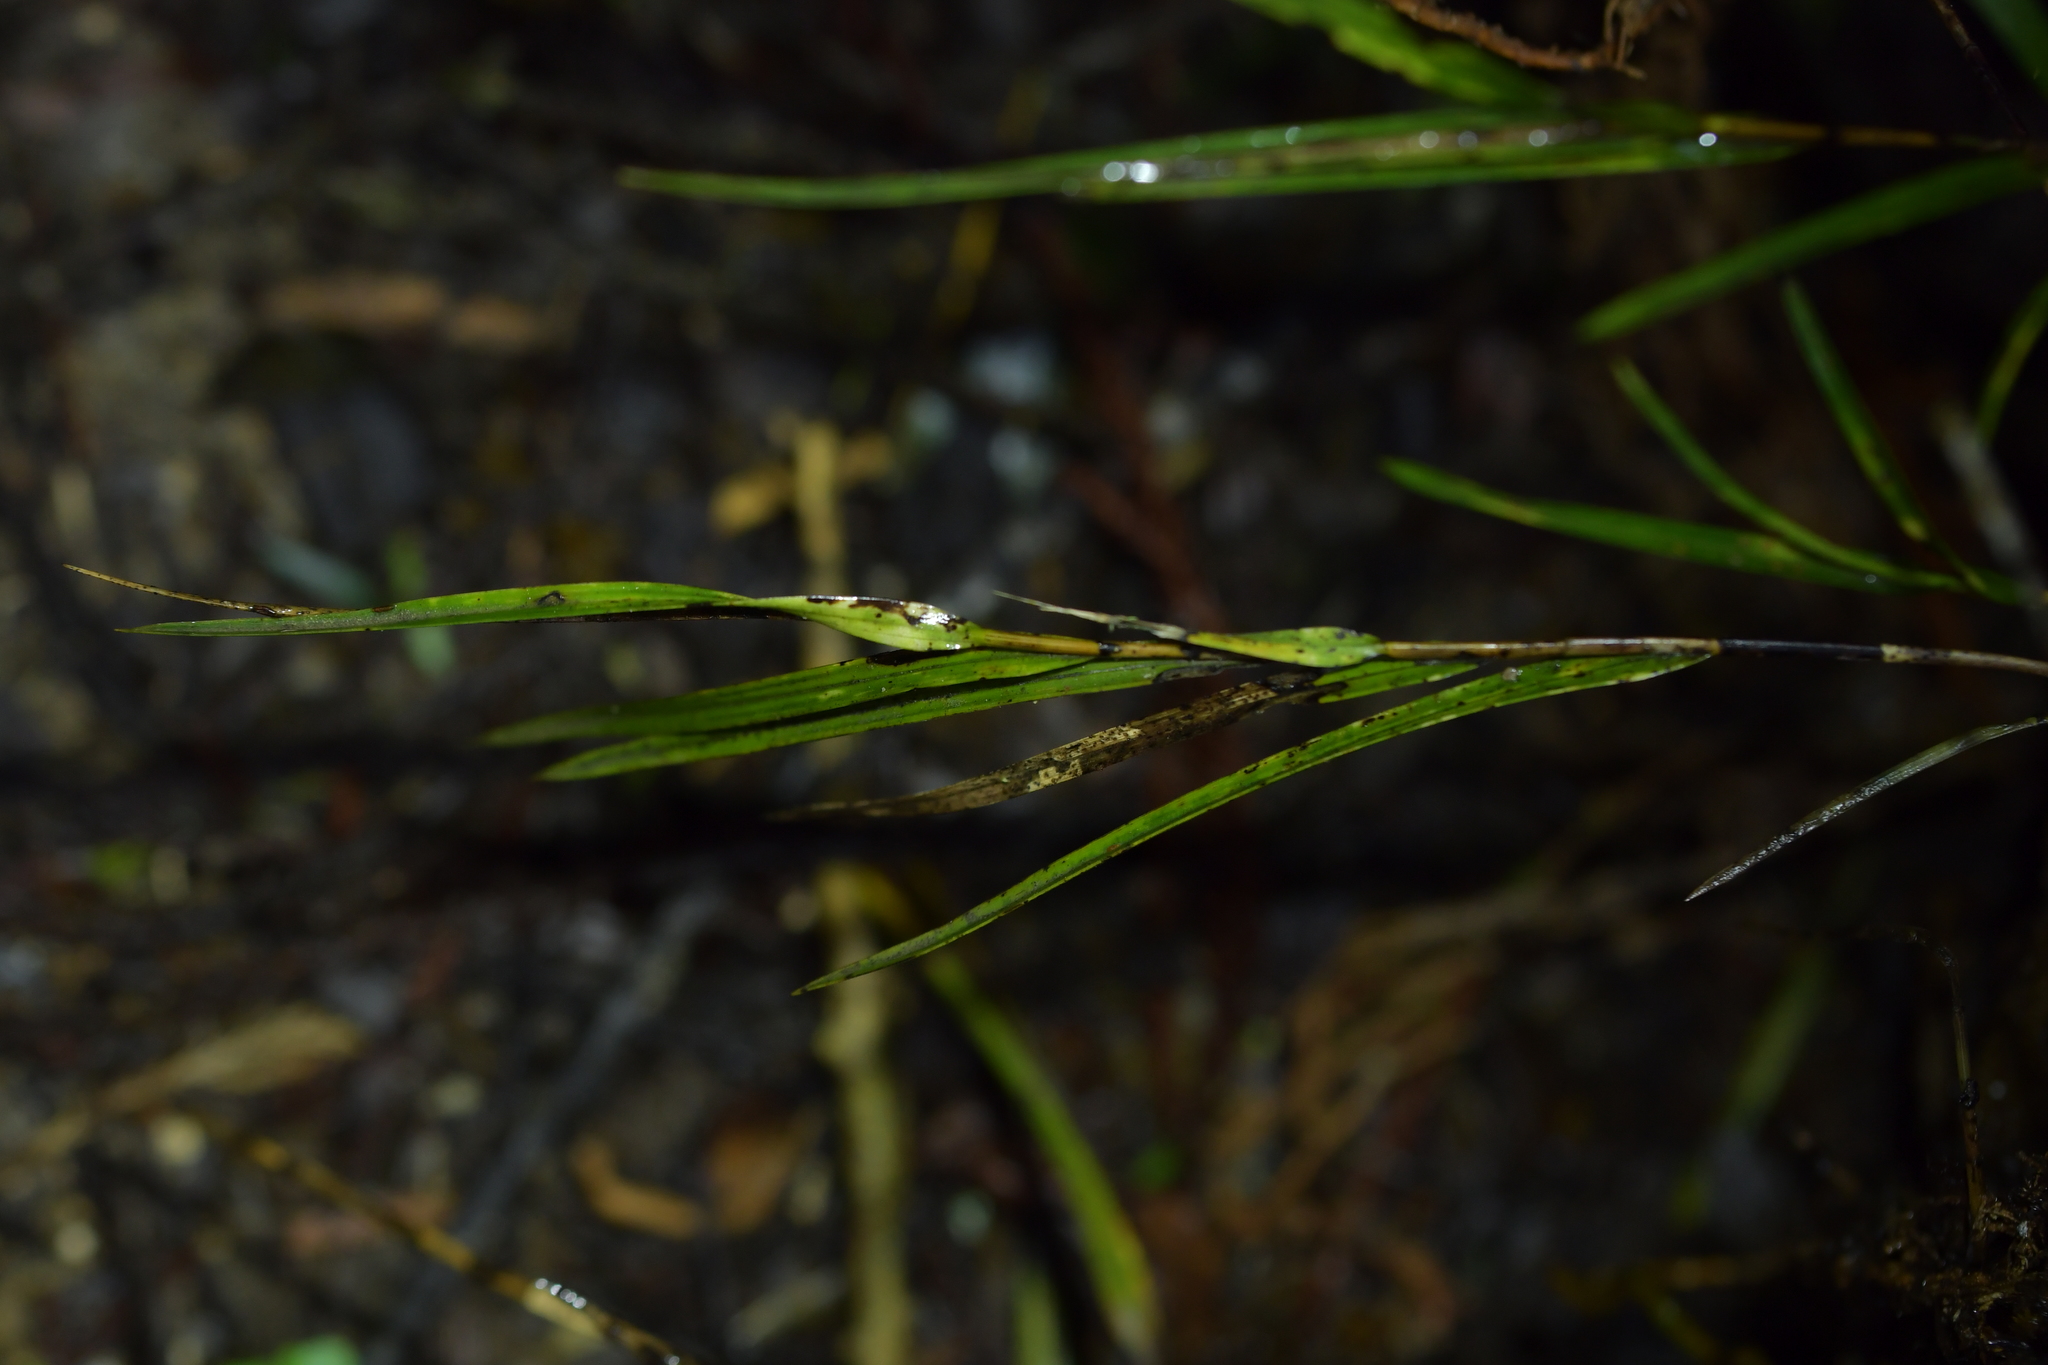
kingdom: Plantae
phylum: Tracheophyta
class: Liliopsida
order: Asparagales
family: Orchidaceae
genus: Earina
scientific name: Earina mucronata
